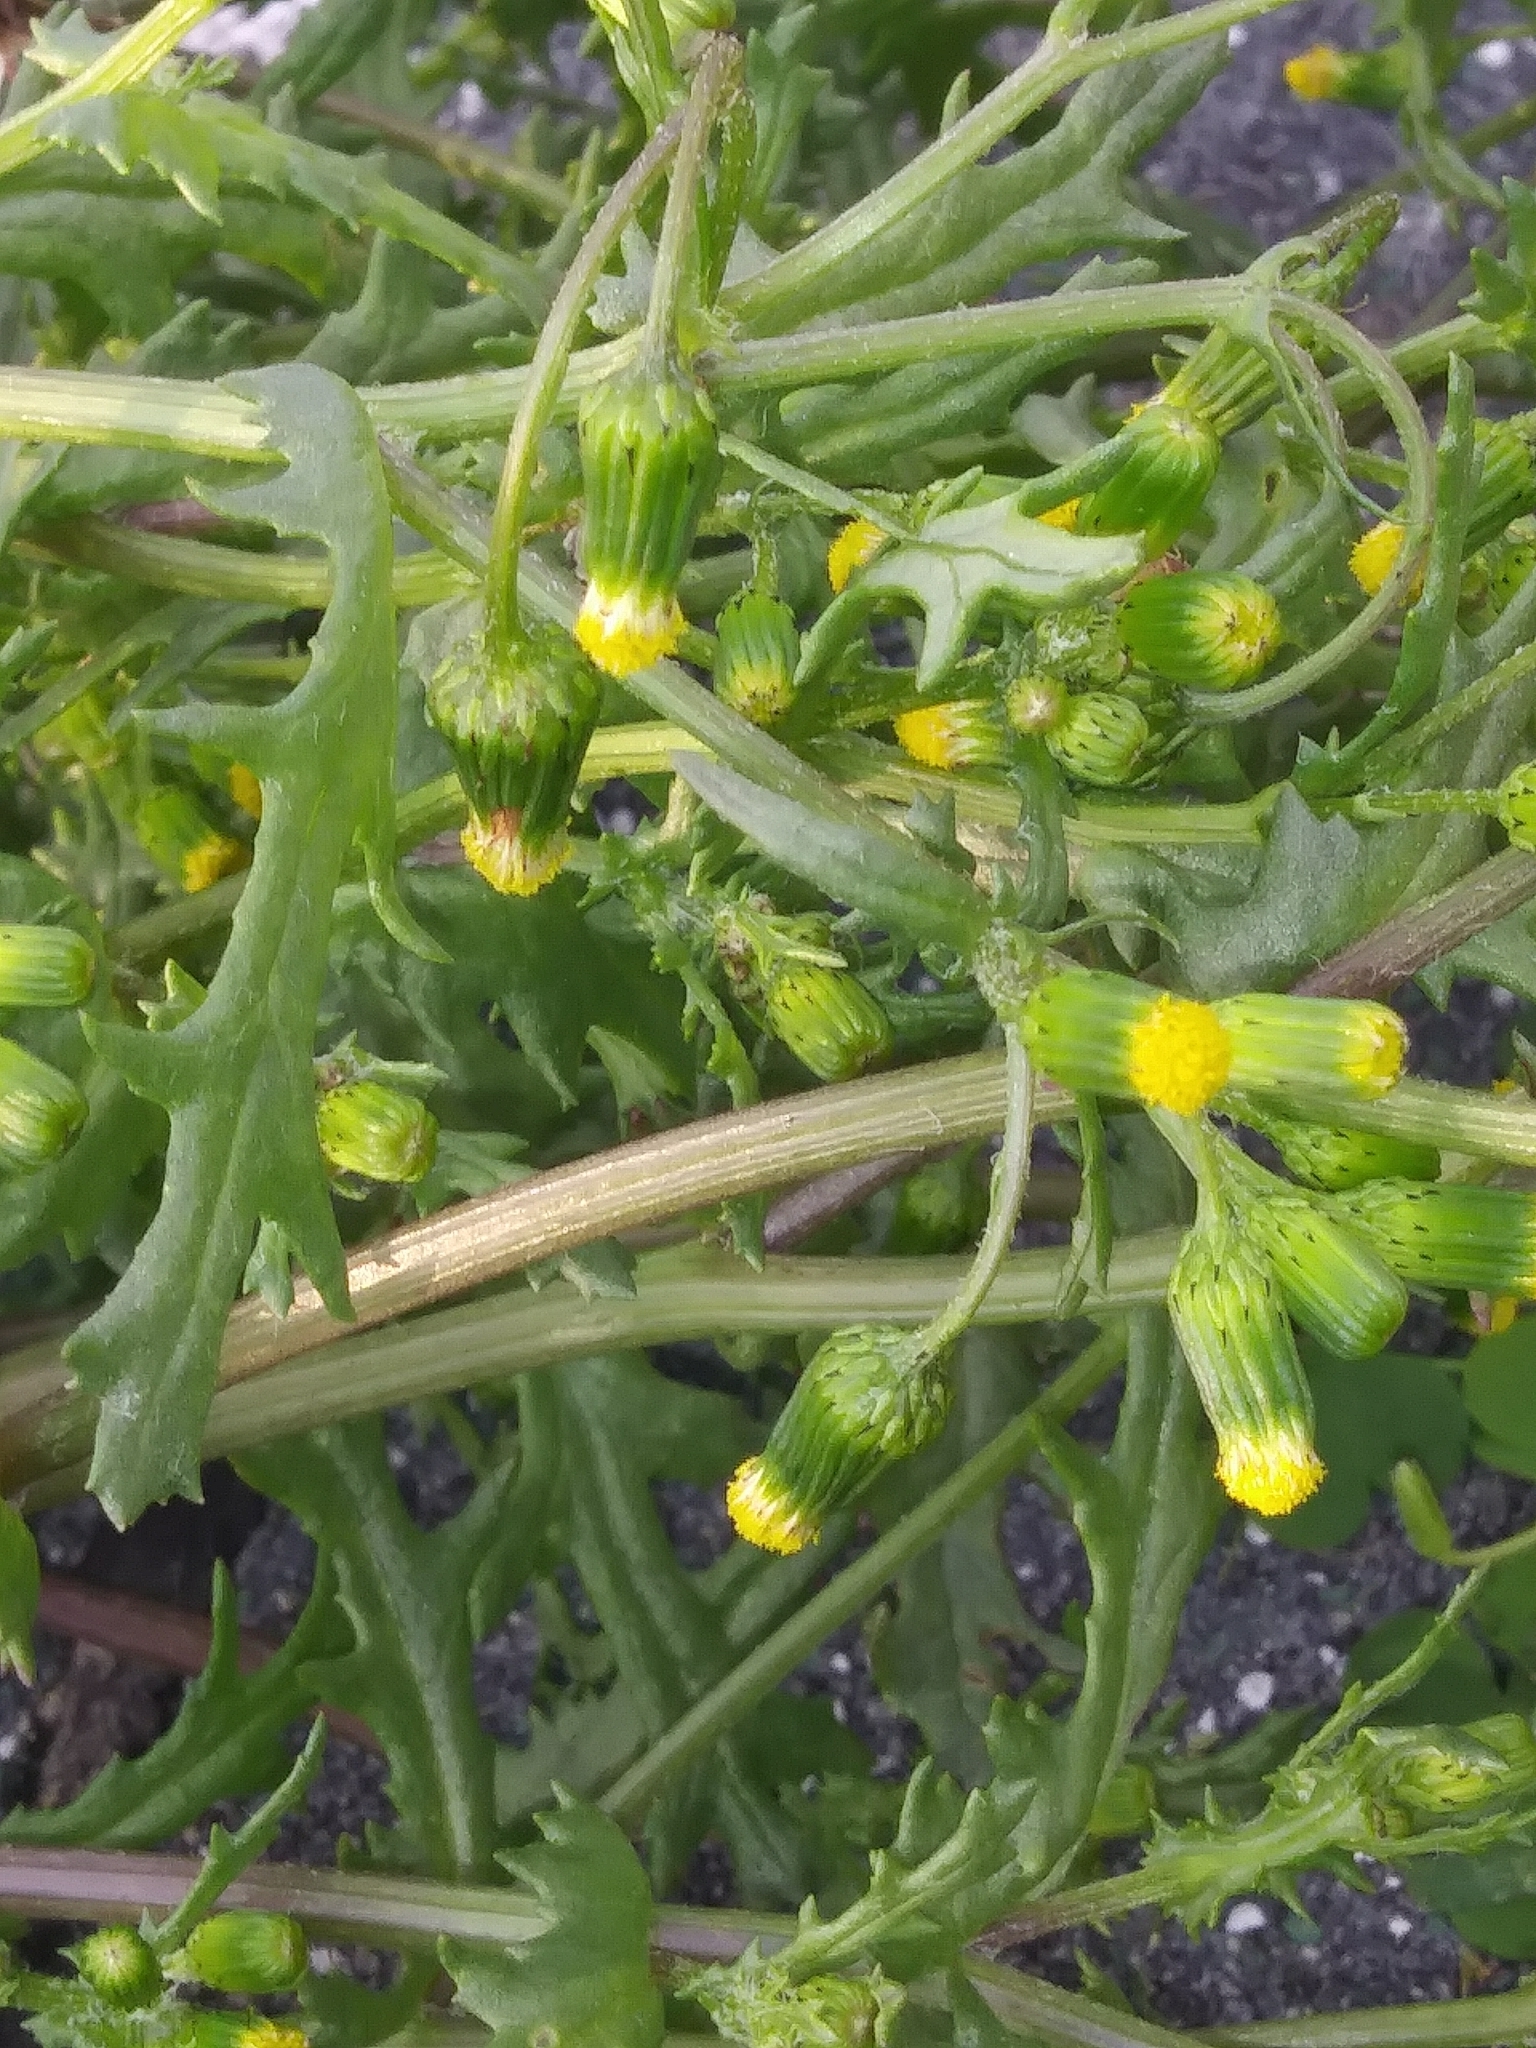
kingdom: Plantae
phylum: Tracheophyta
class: Magnoliopsida
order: Asterales
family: Asteraceae
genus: Senecio
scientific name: Senecio vulgaris
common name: Old-man-in-the-spring
